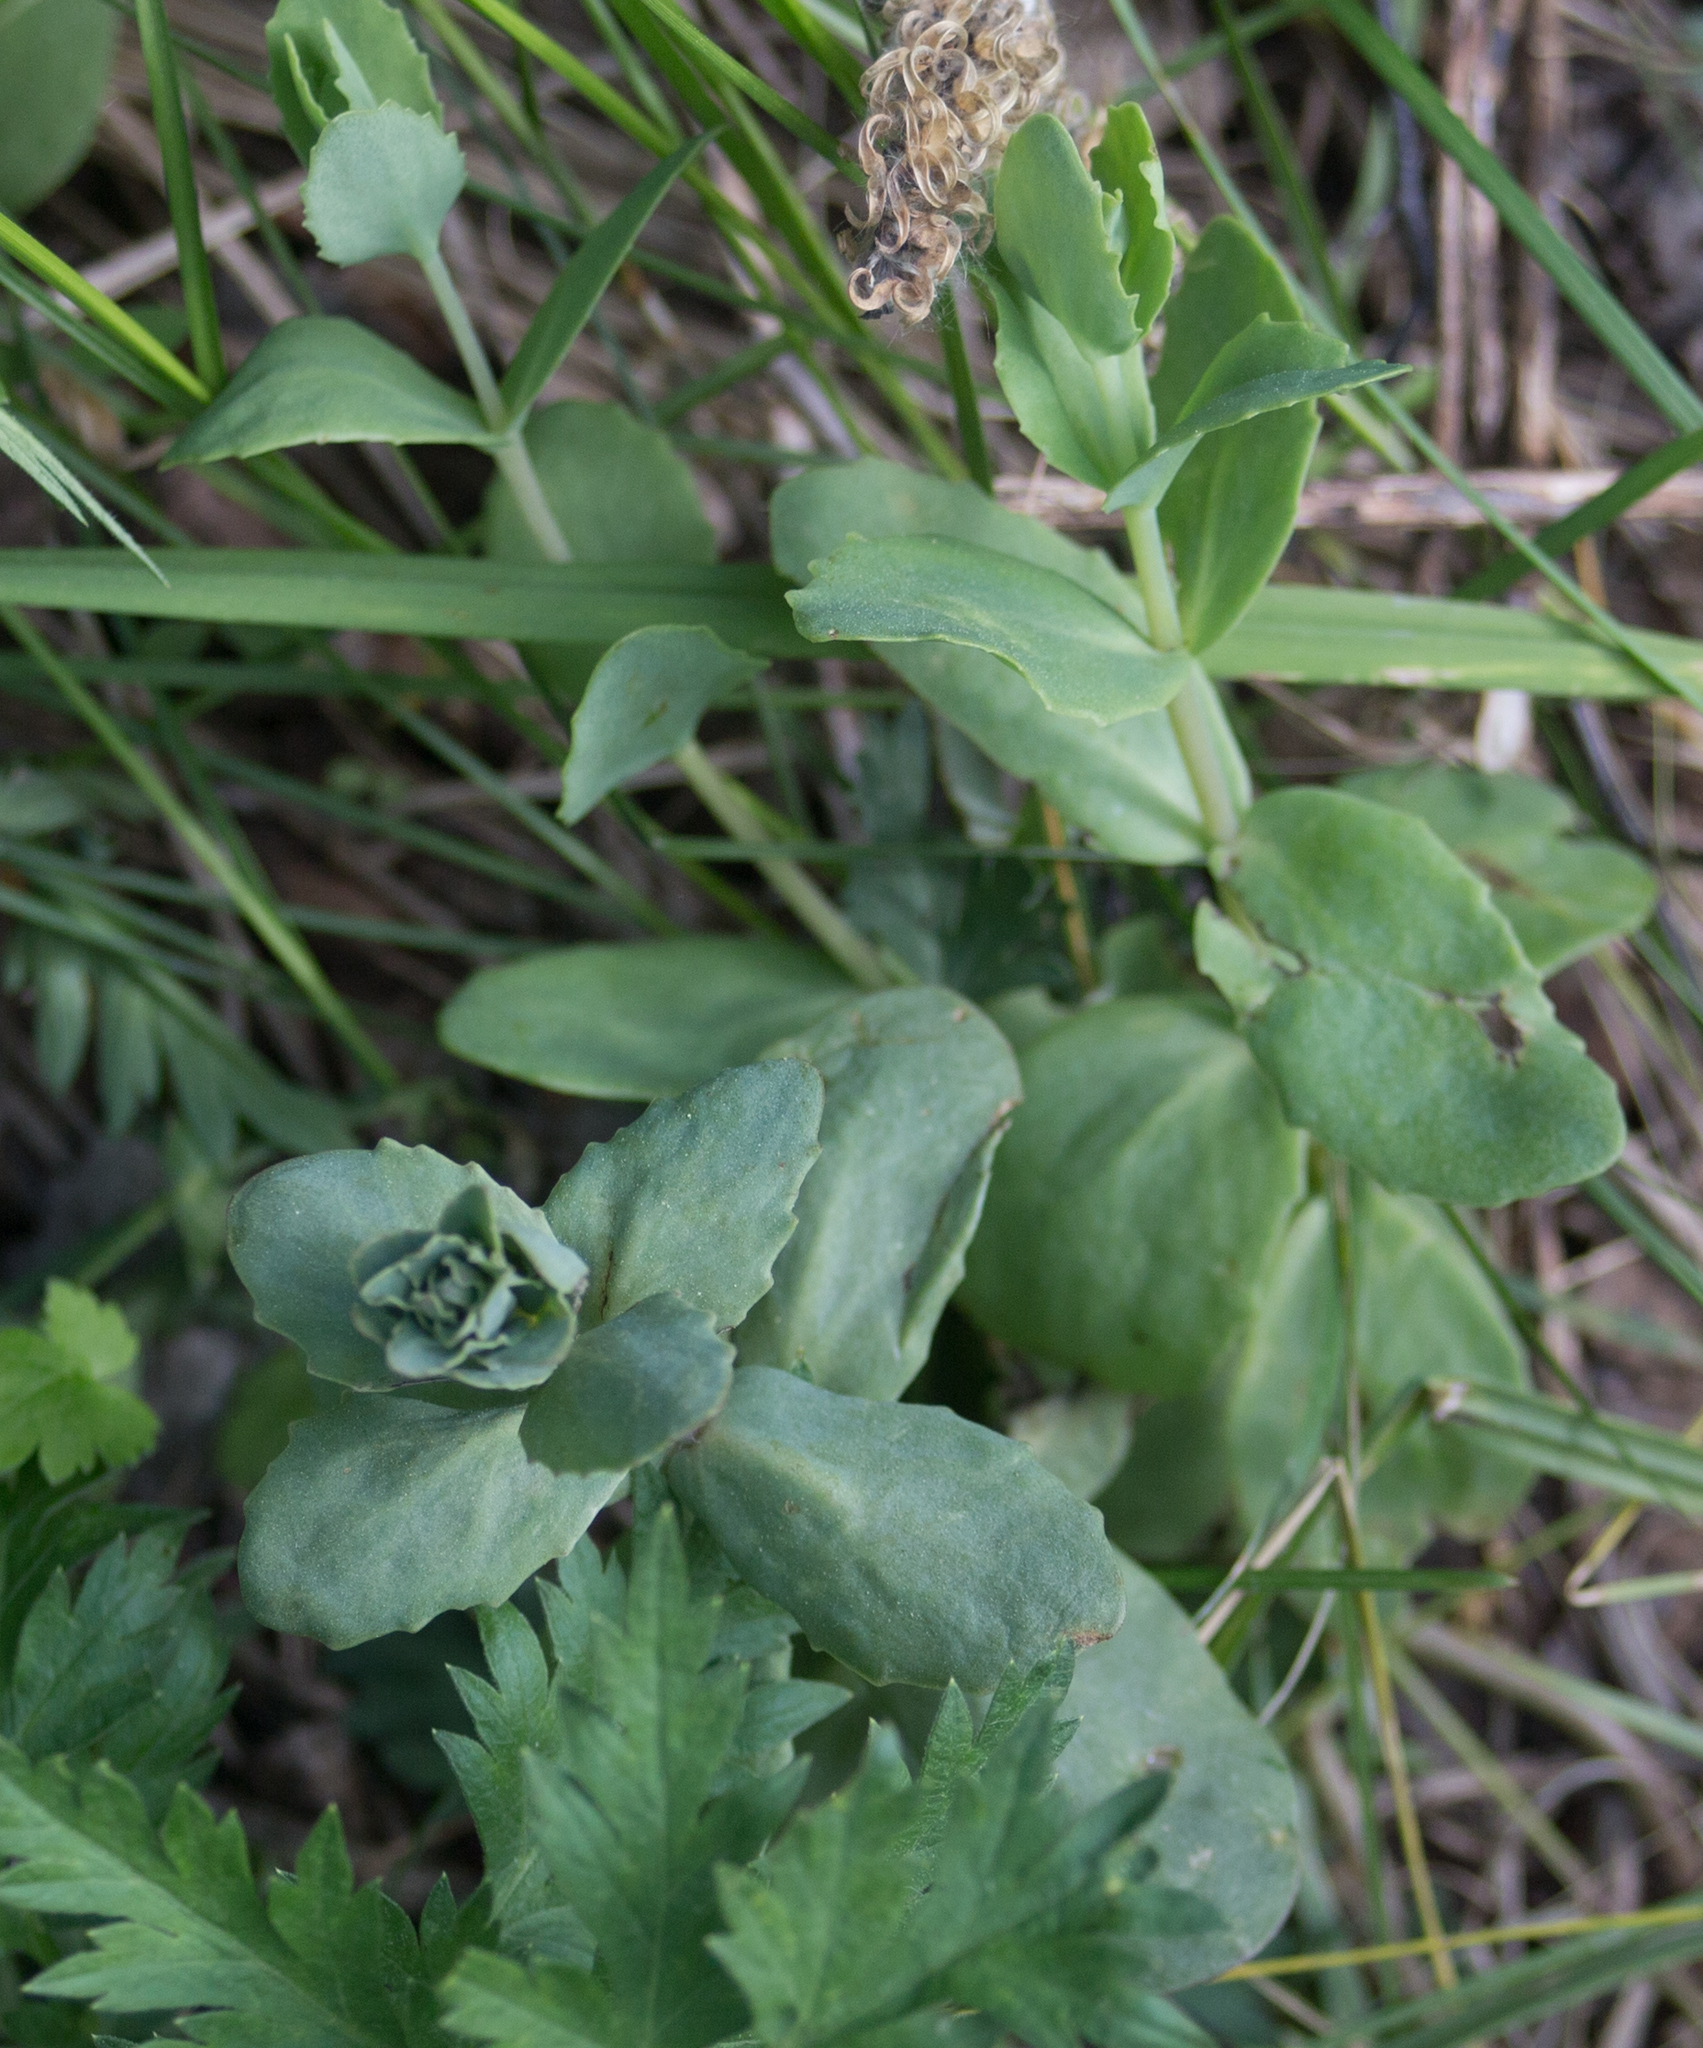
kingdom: Plantae
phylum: Tracheophyta
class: Magnoliopsida
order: Saxifragales
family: Crassulaceae
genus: Hylotelephium
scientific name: Hylotelephium maximum
